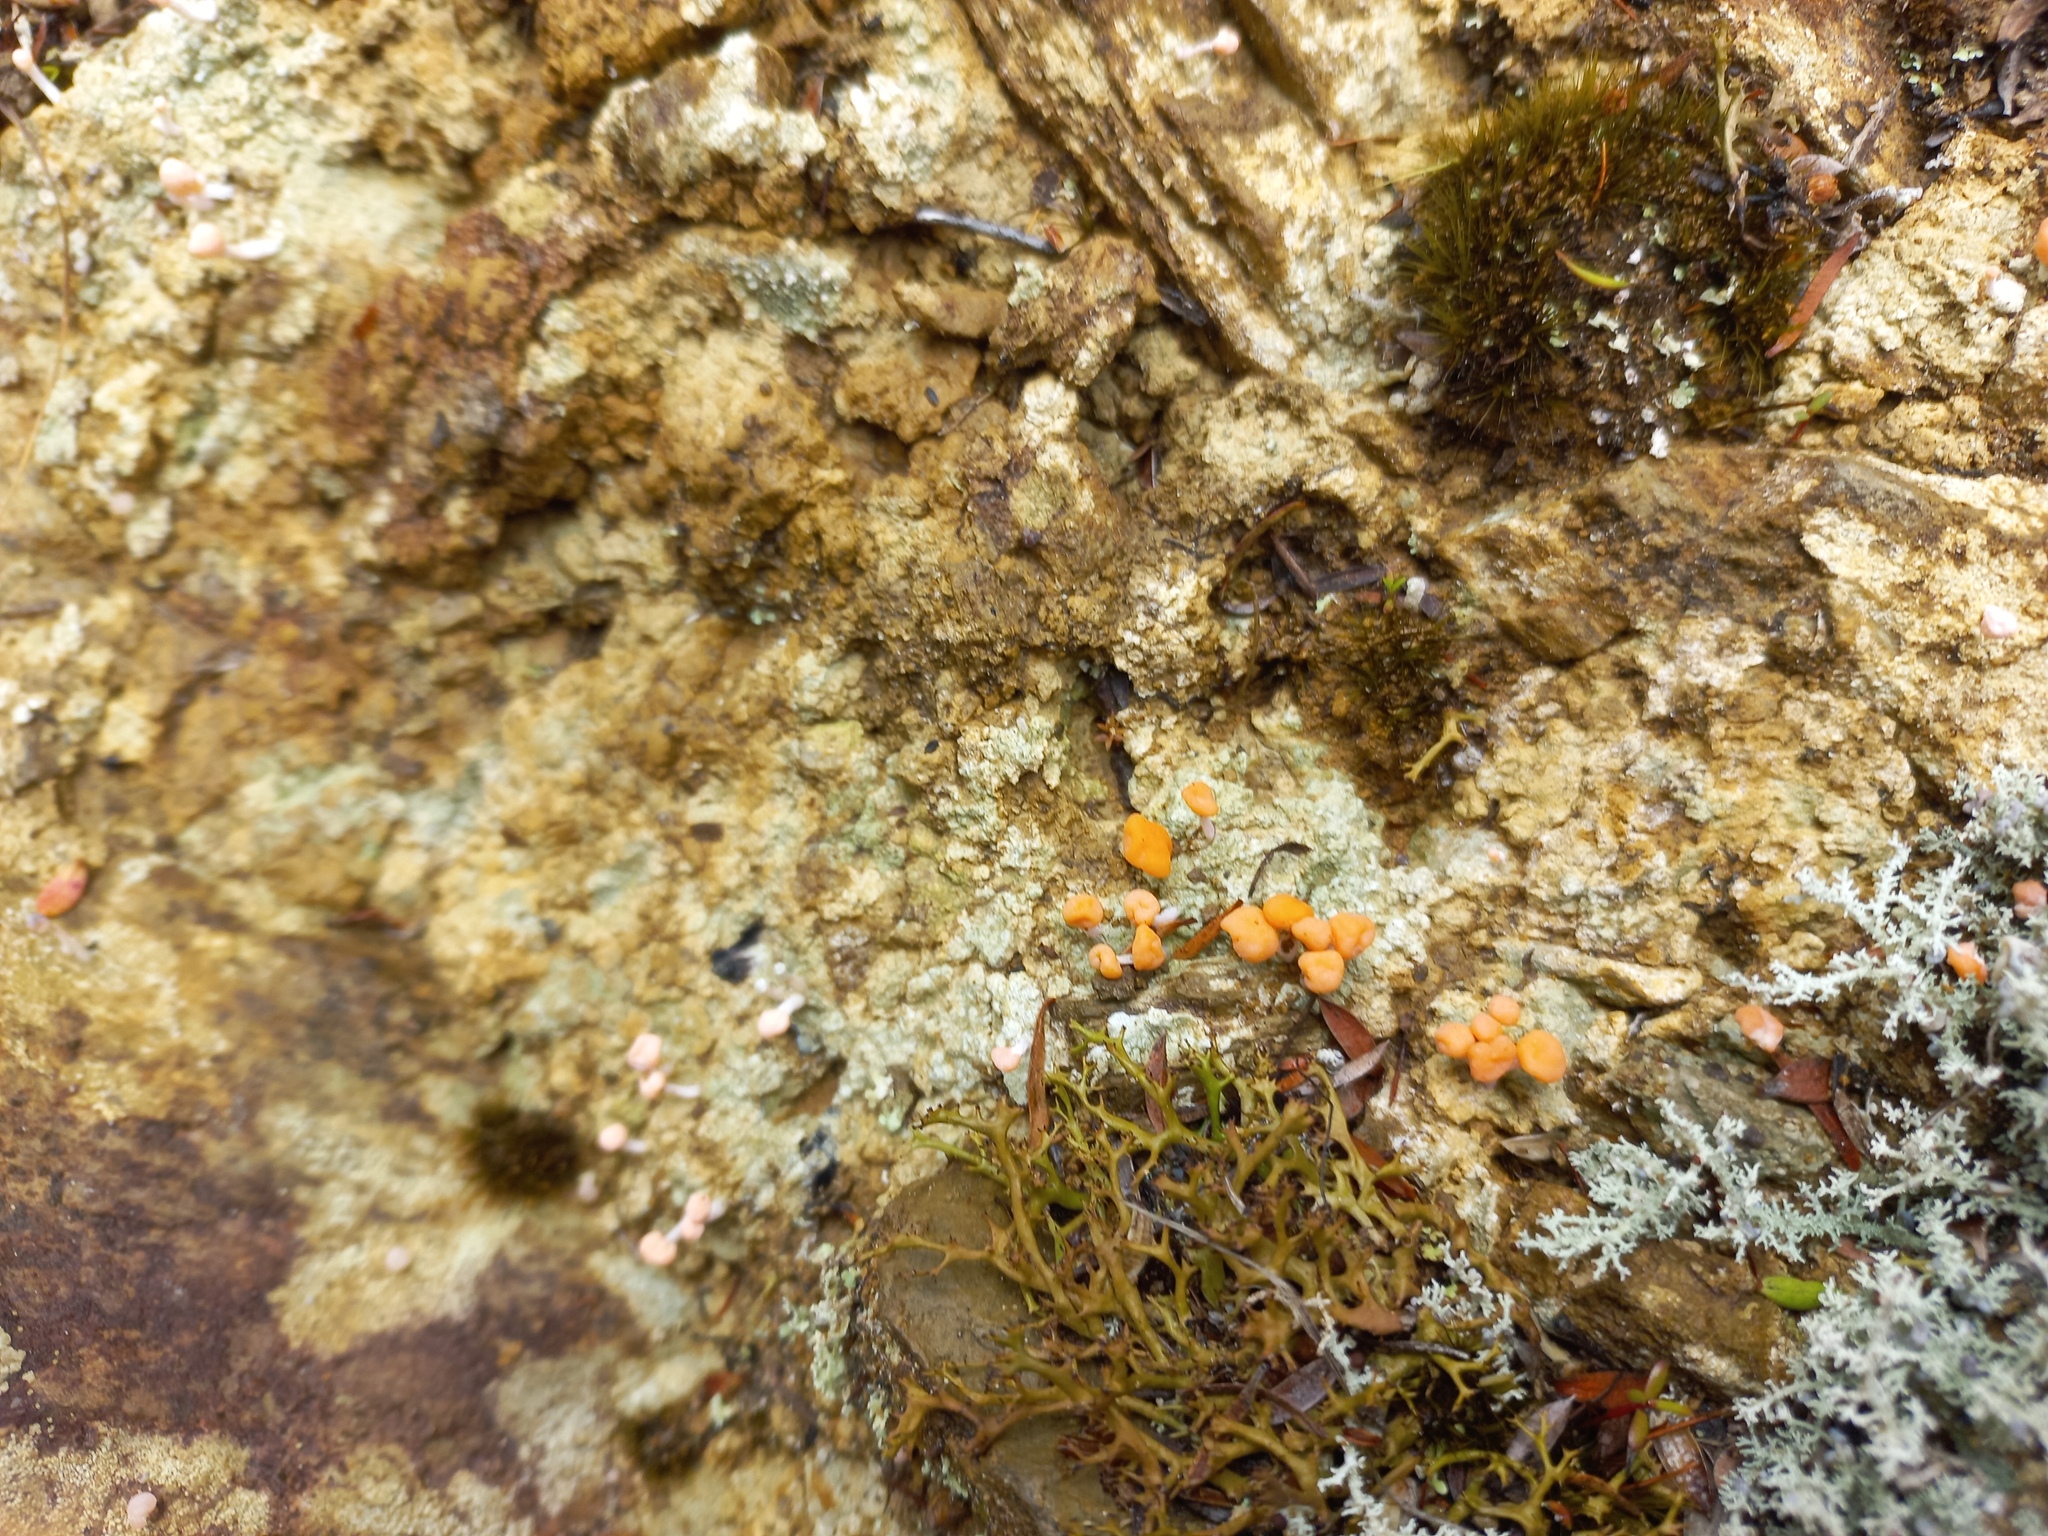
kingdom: Fungi
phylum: Ascomycota
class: Lecanoromycetes
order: Pertusariales
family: Icmadophilaceae
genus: Dibaeis
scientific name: Dibaeis arcuata
